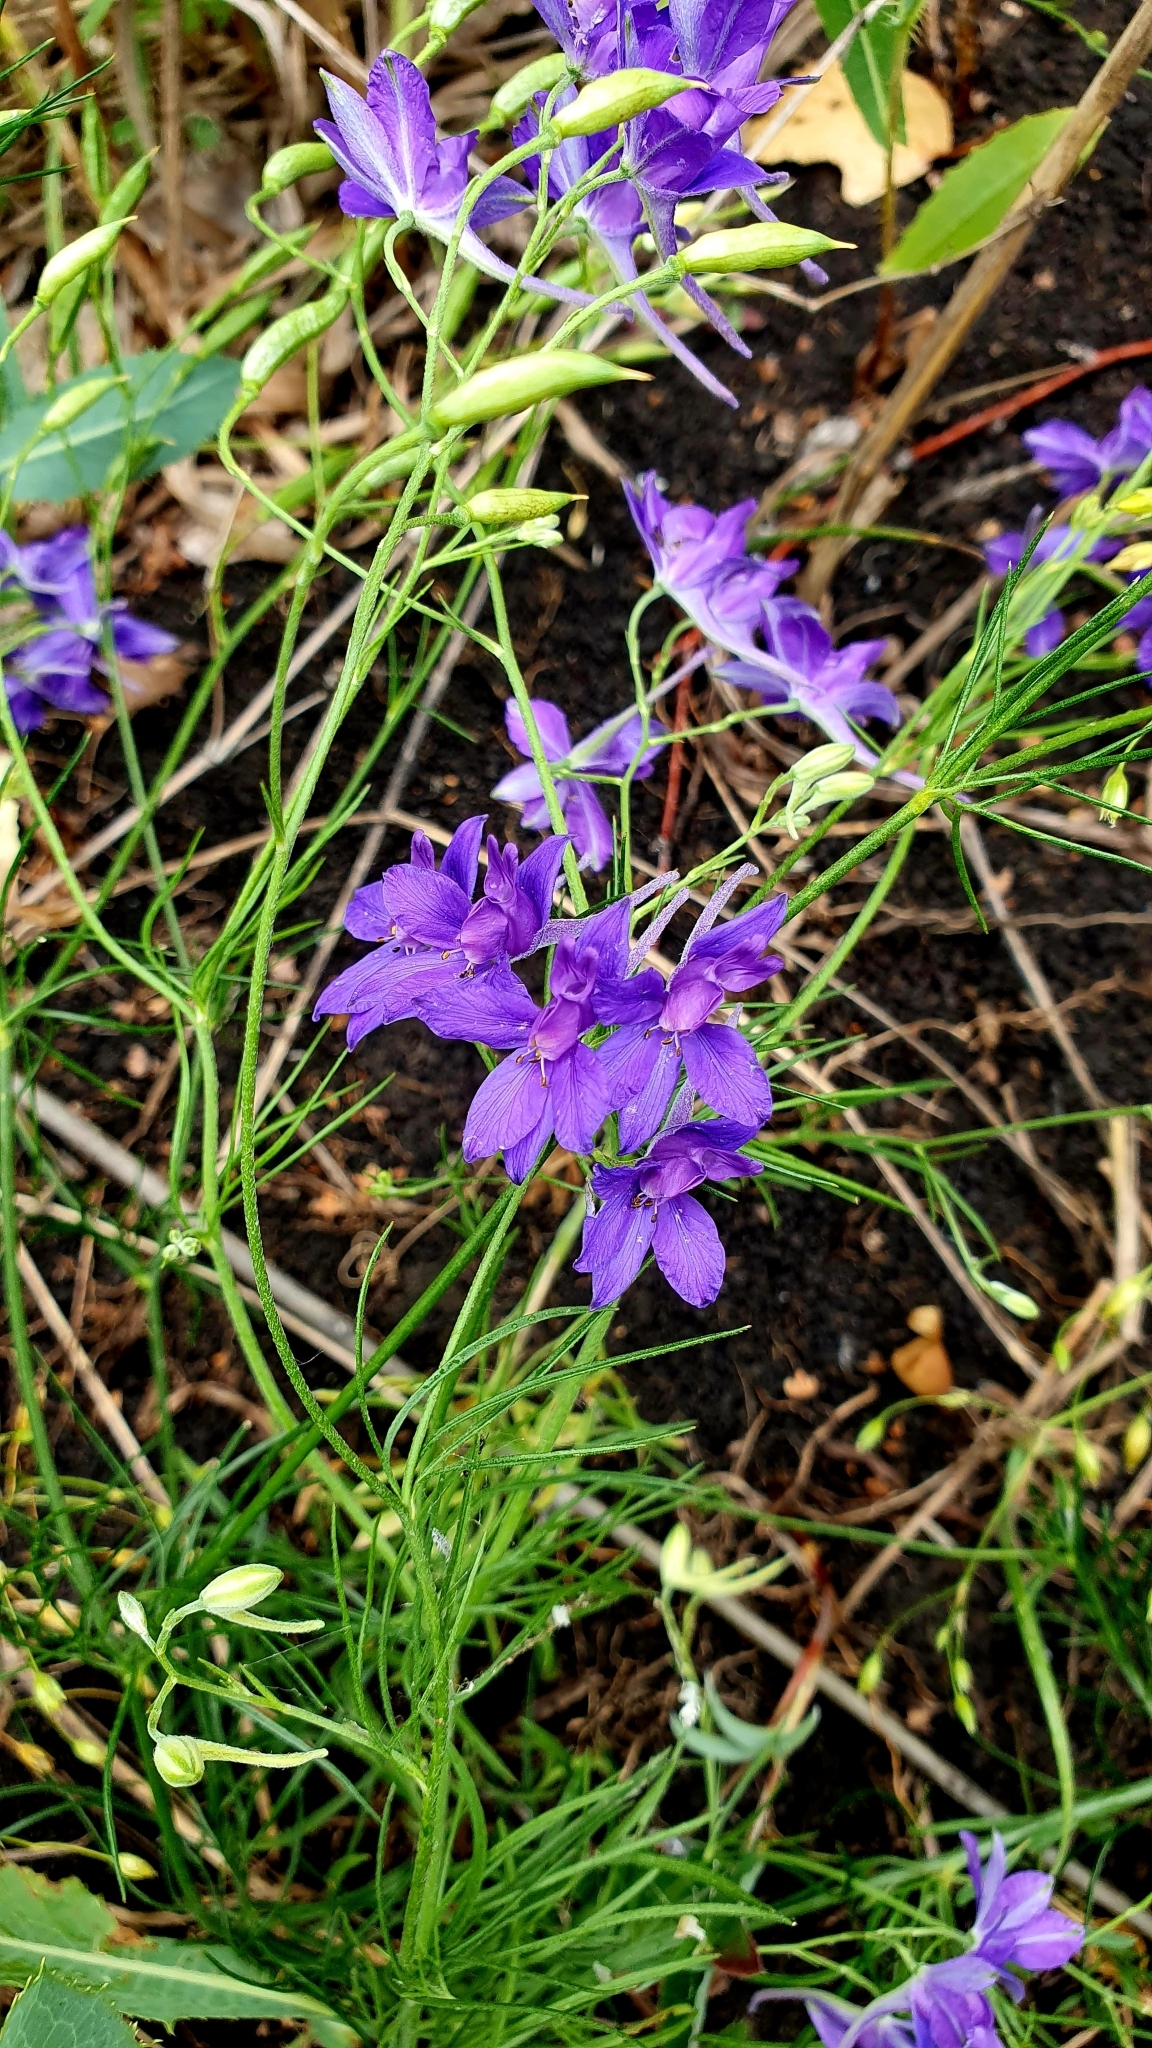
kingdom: Plantae
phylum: Tracheophyta
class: Magnoliopsida
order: Ranunculales
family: Ranunculaceae
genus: Delphinium
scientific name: Delphinium consolida
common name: Branching larkspur
